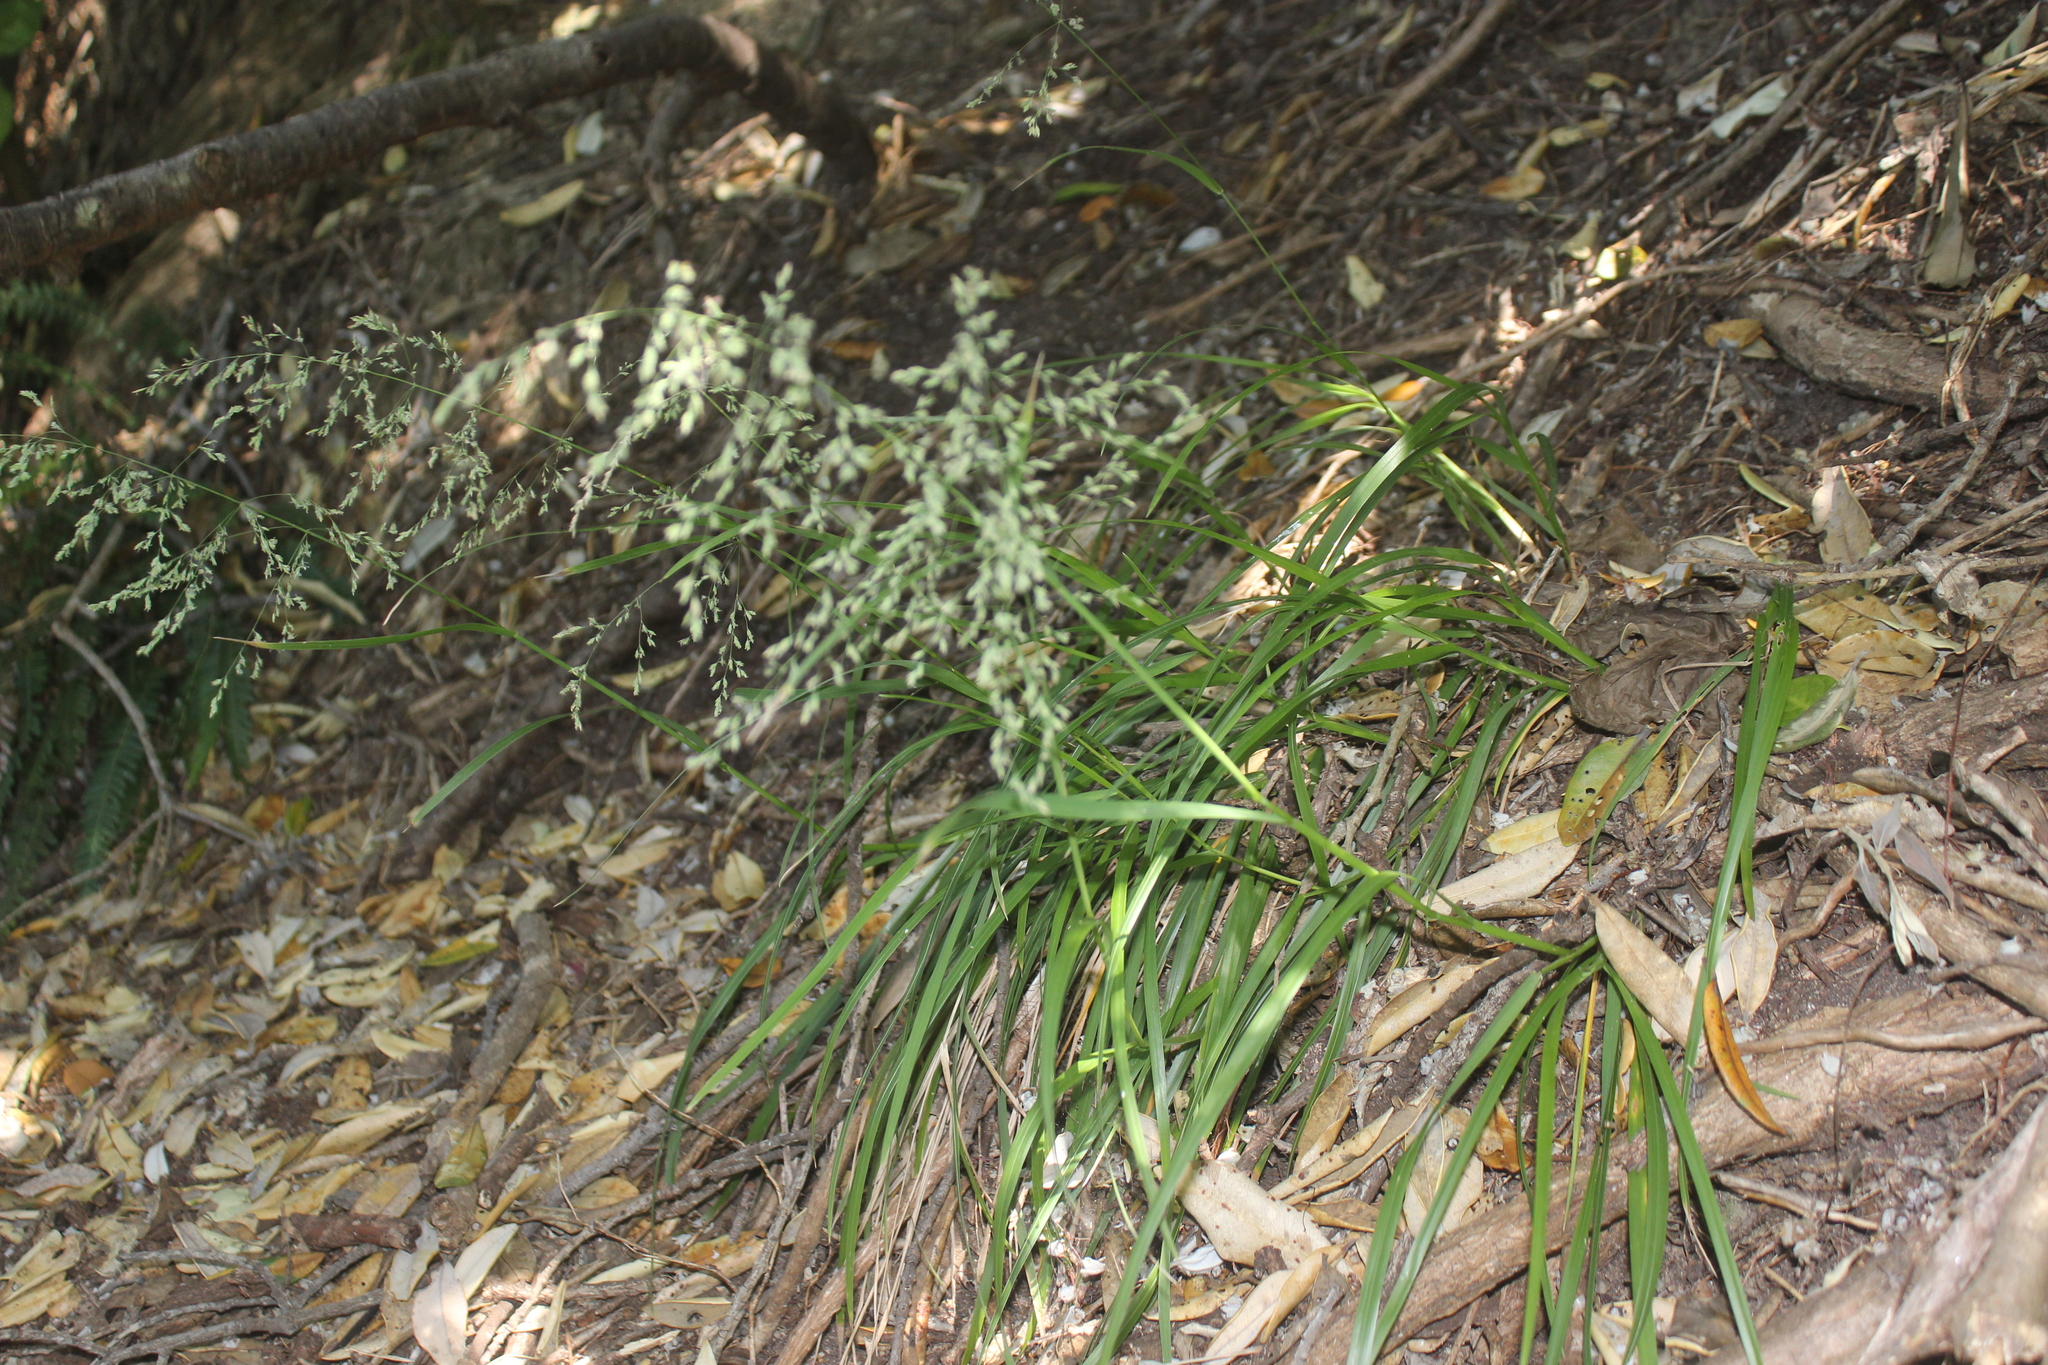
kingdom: Plantae
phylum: Tracheophyta
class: Liliopsida
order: Poales
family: Poaceae
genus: Poa
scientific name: Poa anceps
